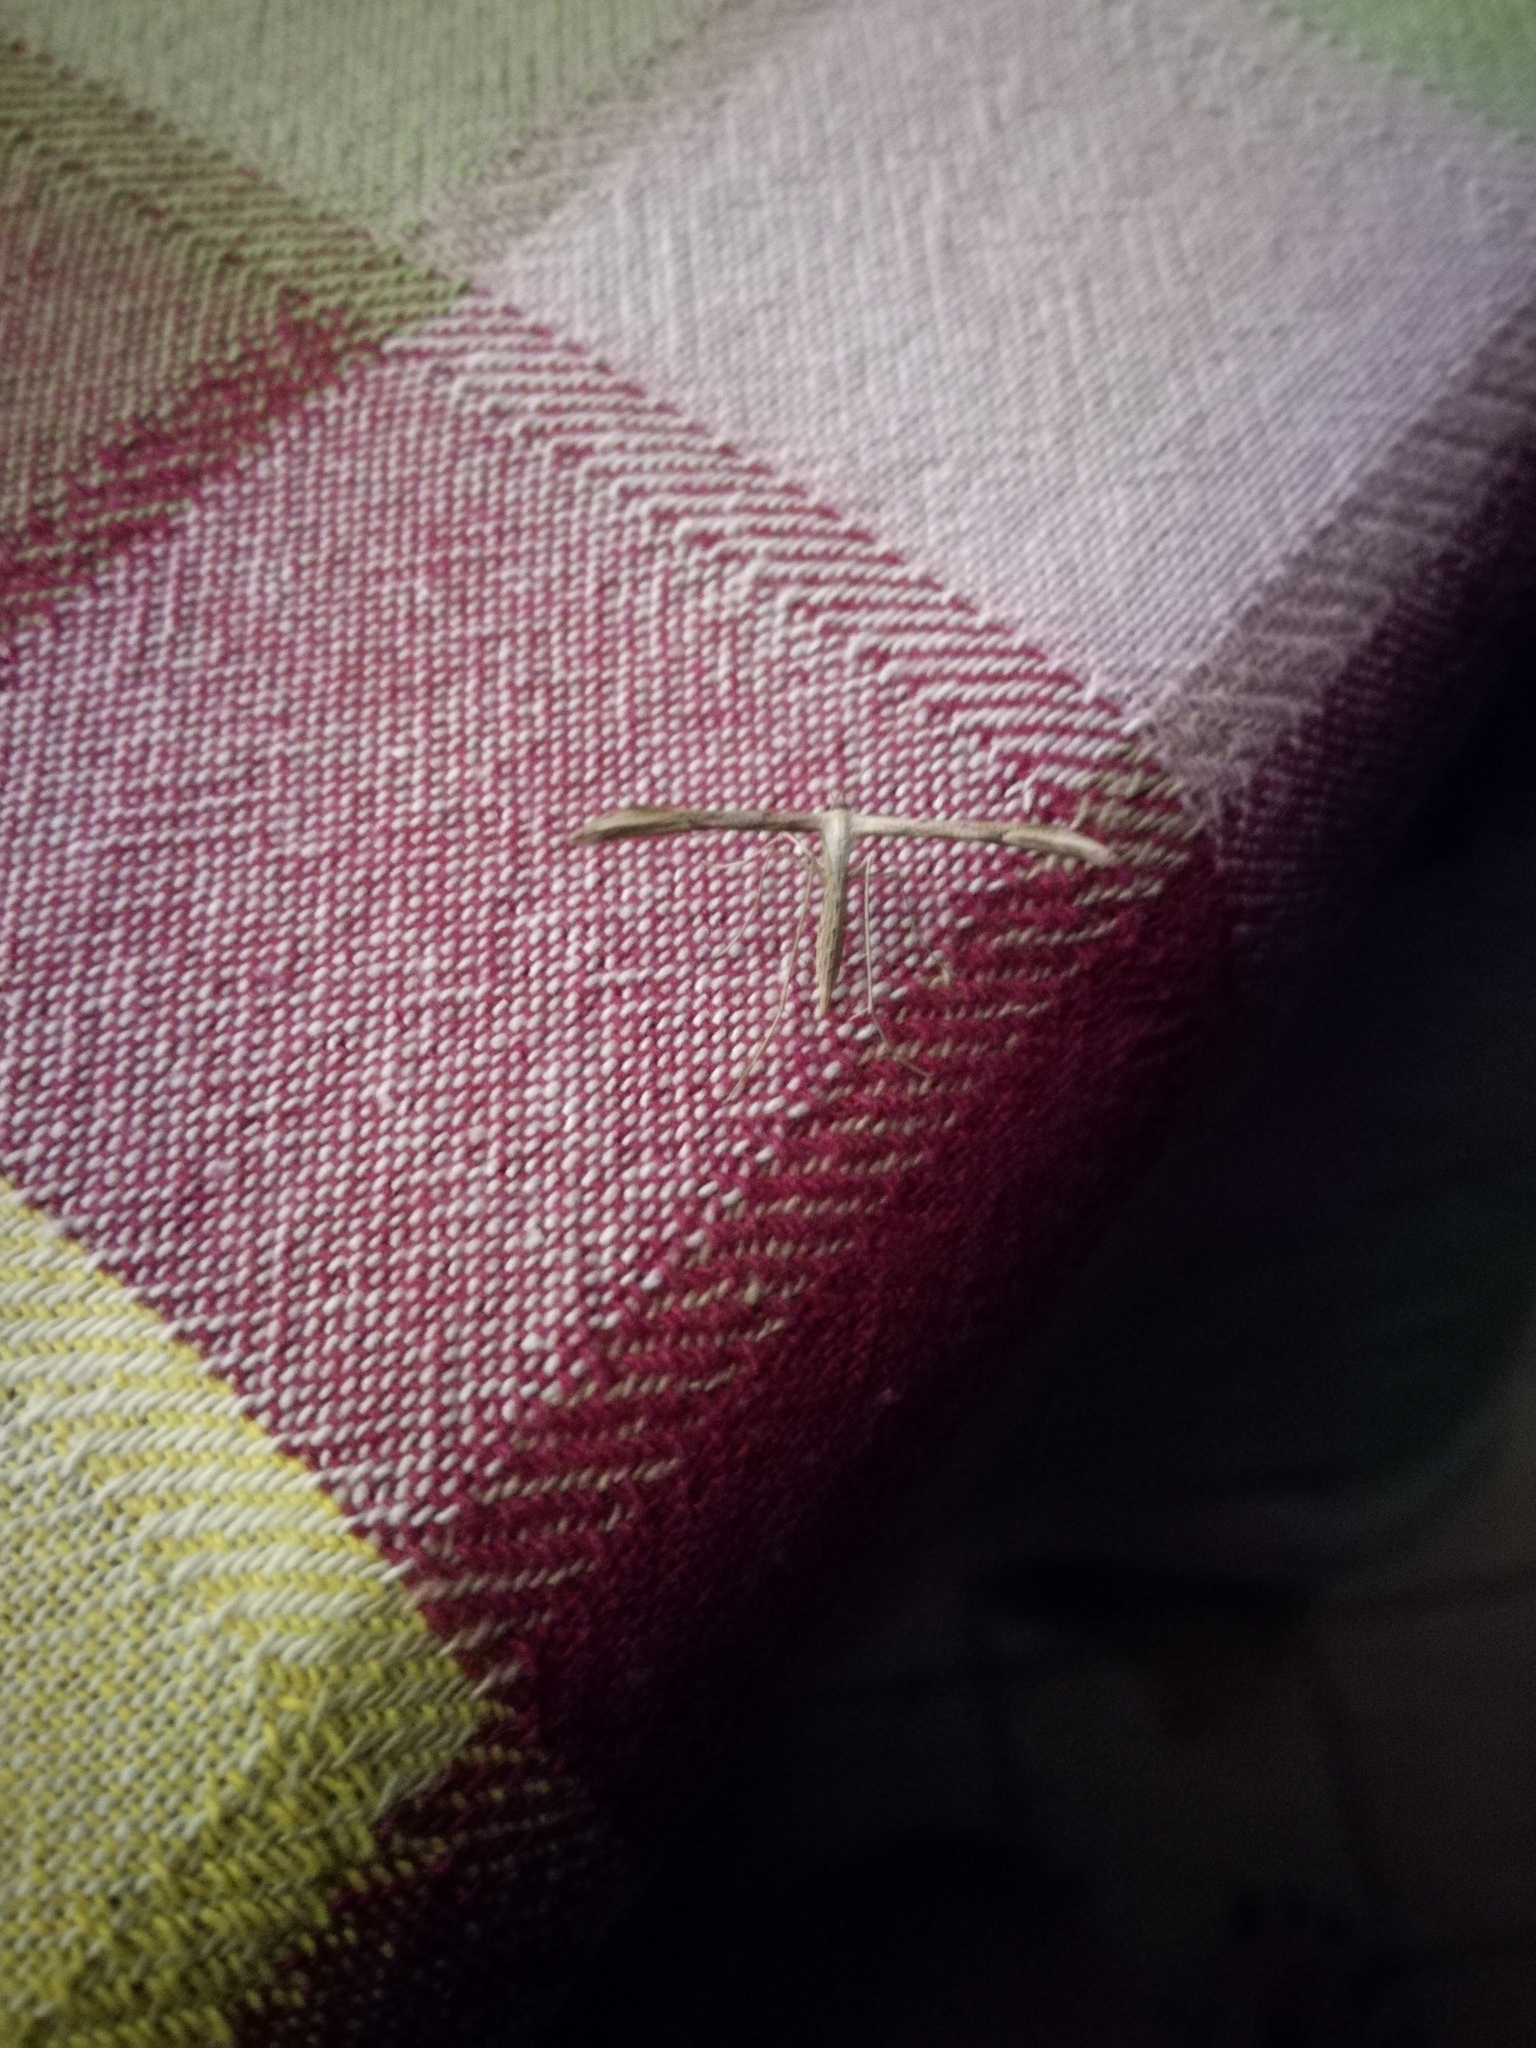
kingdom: Animalia
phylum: Arthropoda
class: Insecta
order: Lepidoptera
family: Pterophoridae
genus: Emmelina
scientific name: Emmelina monodactyla
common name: Common plume
